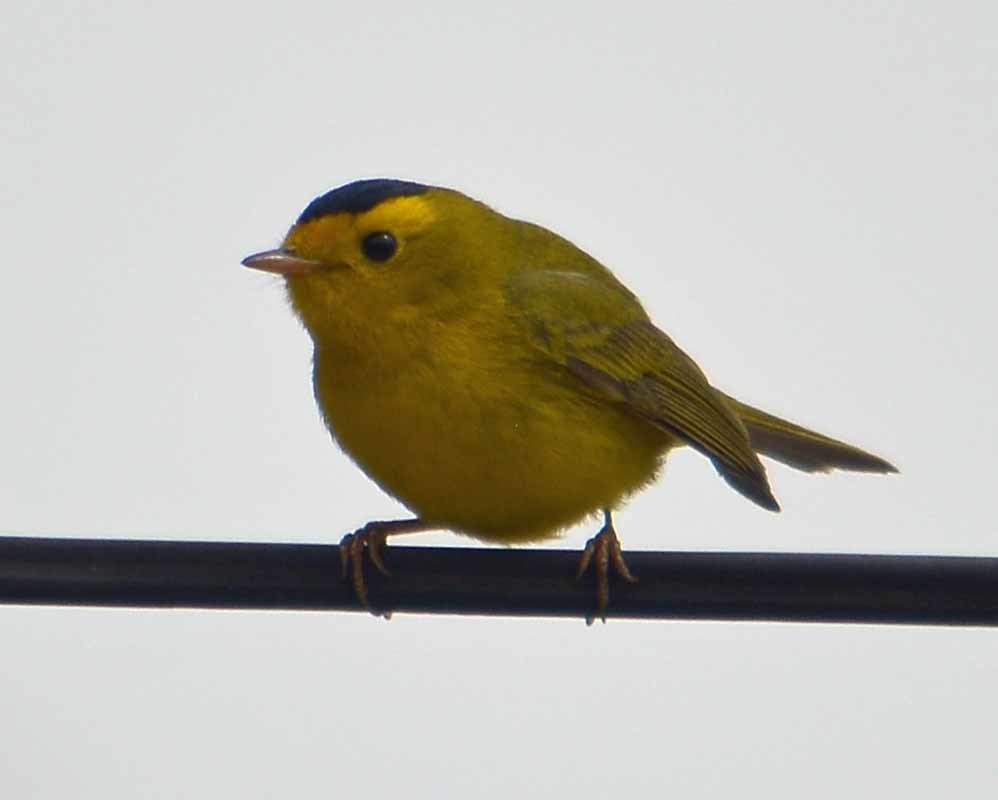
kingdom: Animalia
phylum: Chordata
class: Aves
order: Passeriformes
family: Parulidae
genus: Cardellina
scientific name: Cardellina pusilla
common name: Wilson's warbler
